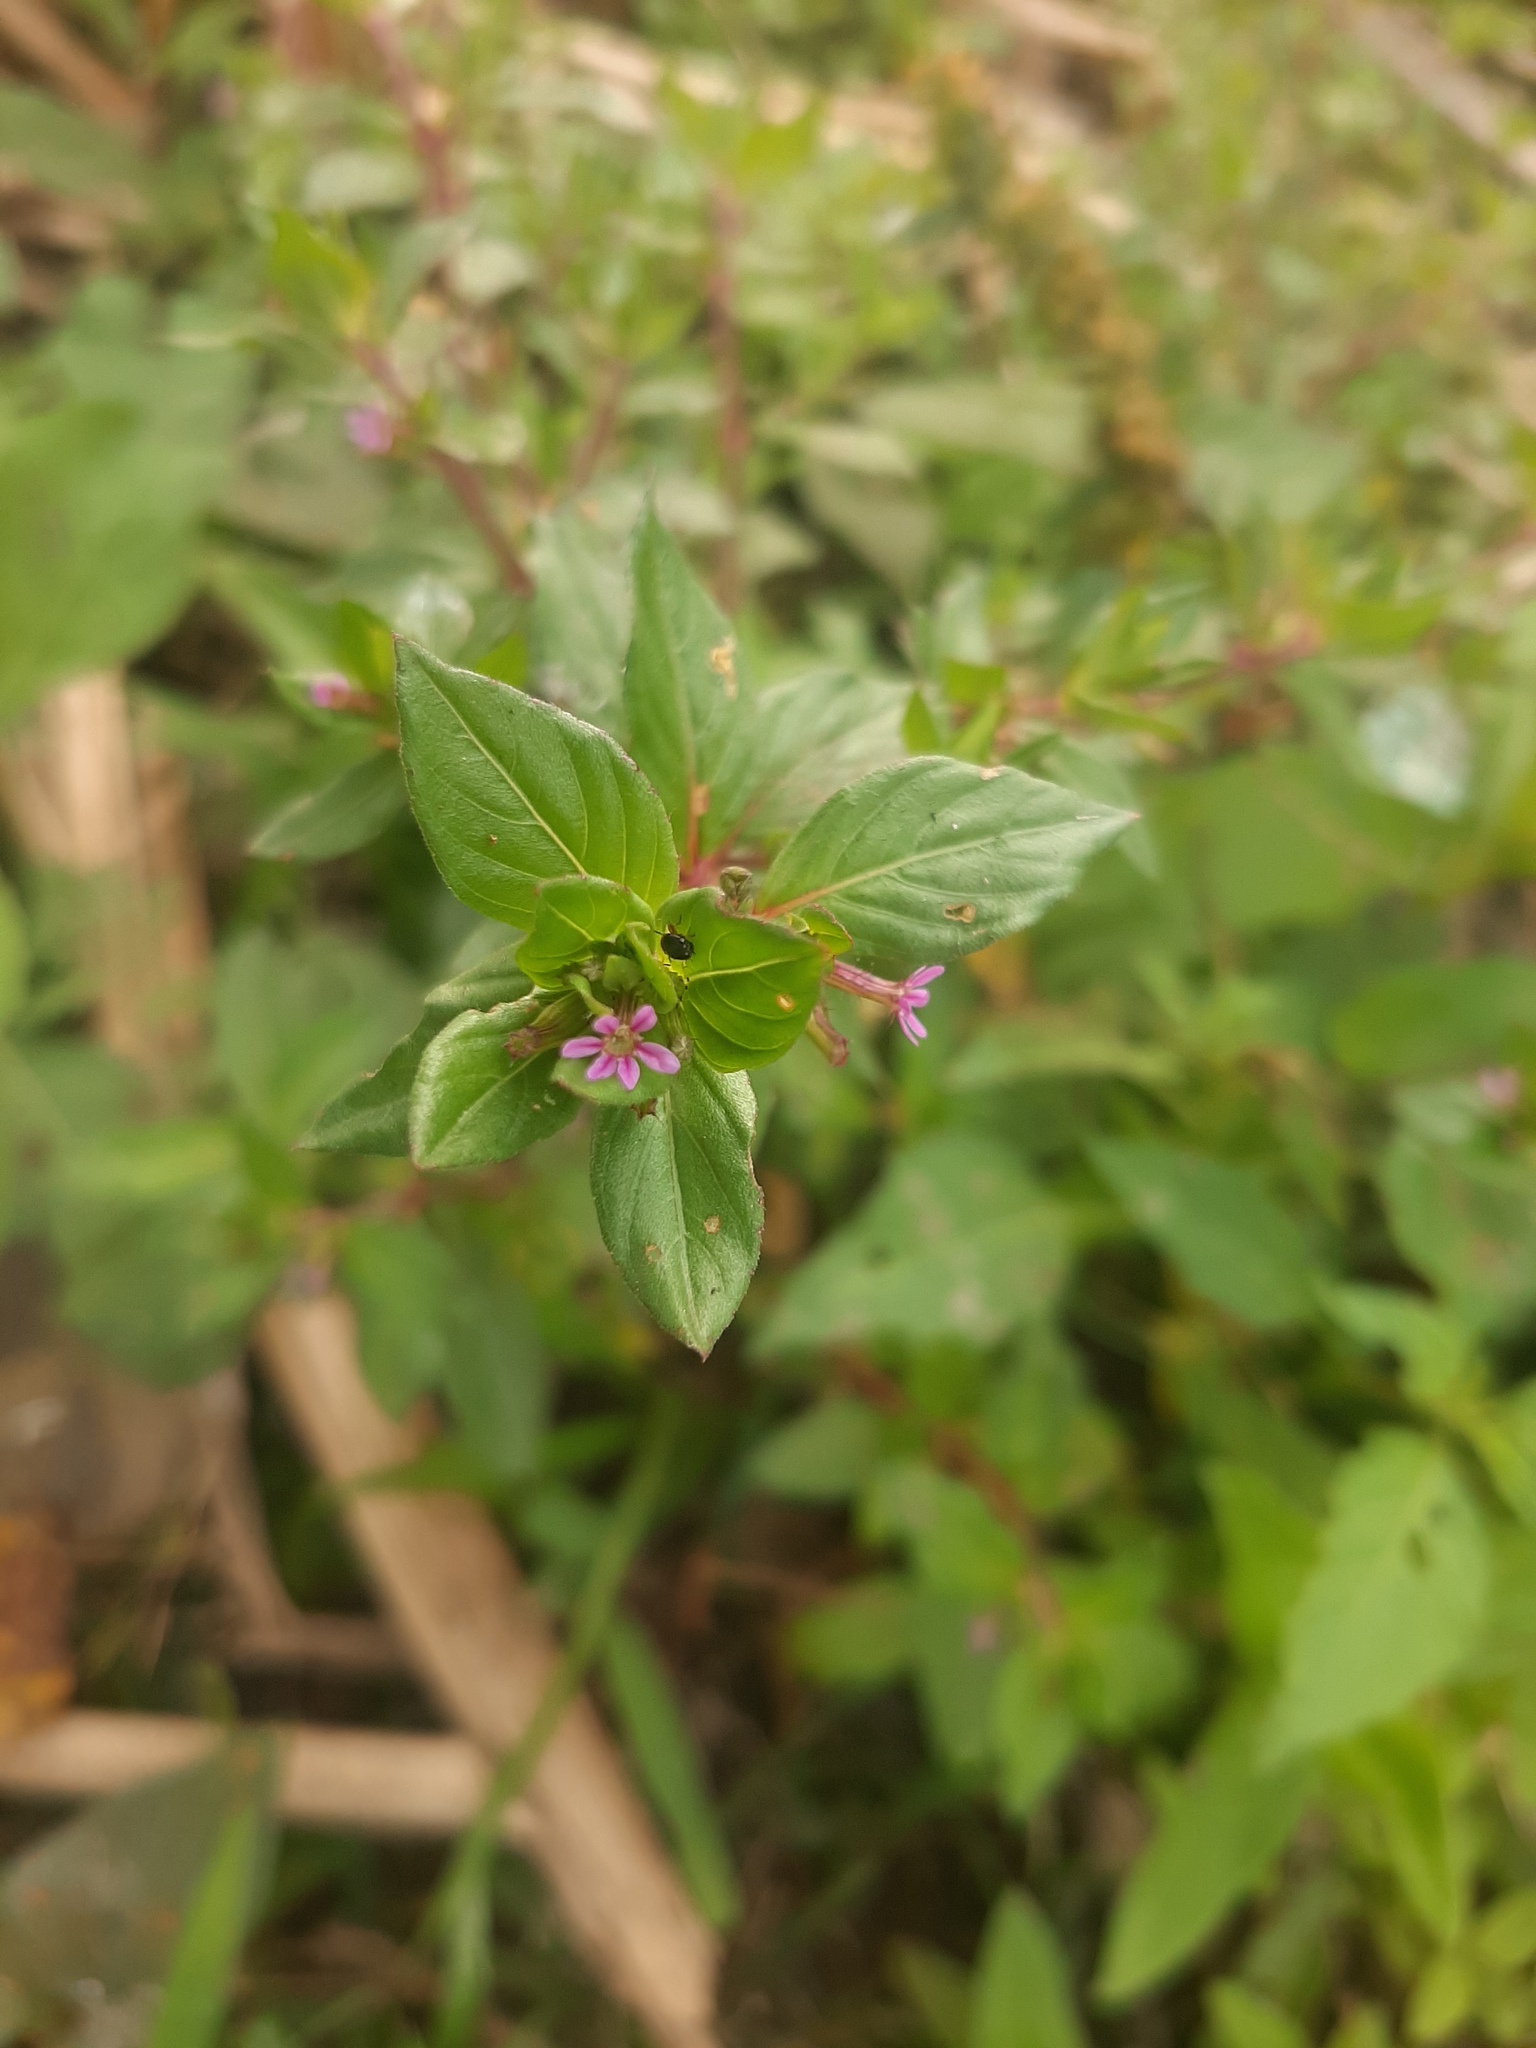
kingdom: Plantae
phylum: Tracheophyta
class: Magnoliopsida
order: Myrtales
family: Lythraceae
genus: Cuphea
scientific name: Cuphea carthagenensis
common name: Colombian waxweed
